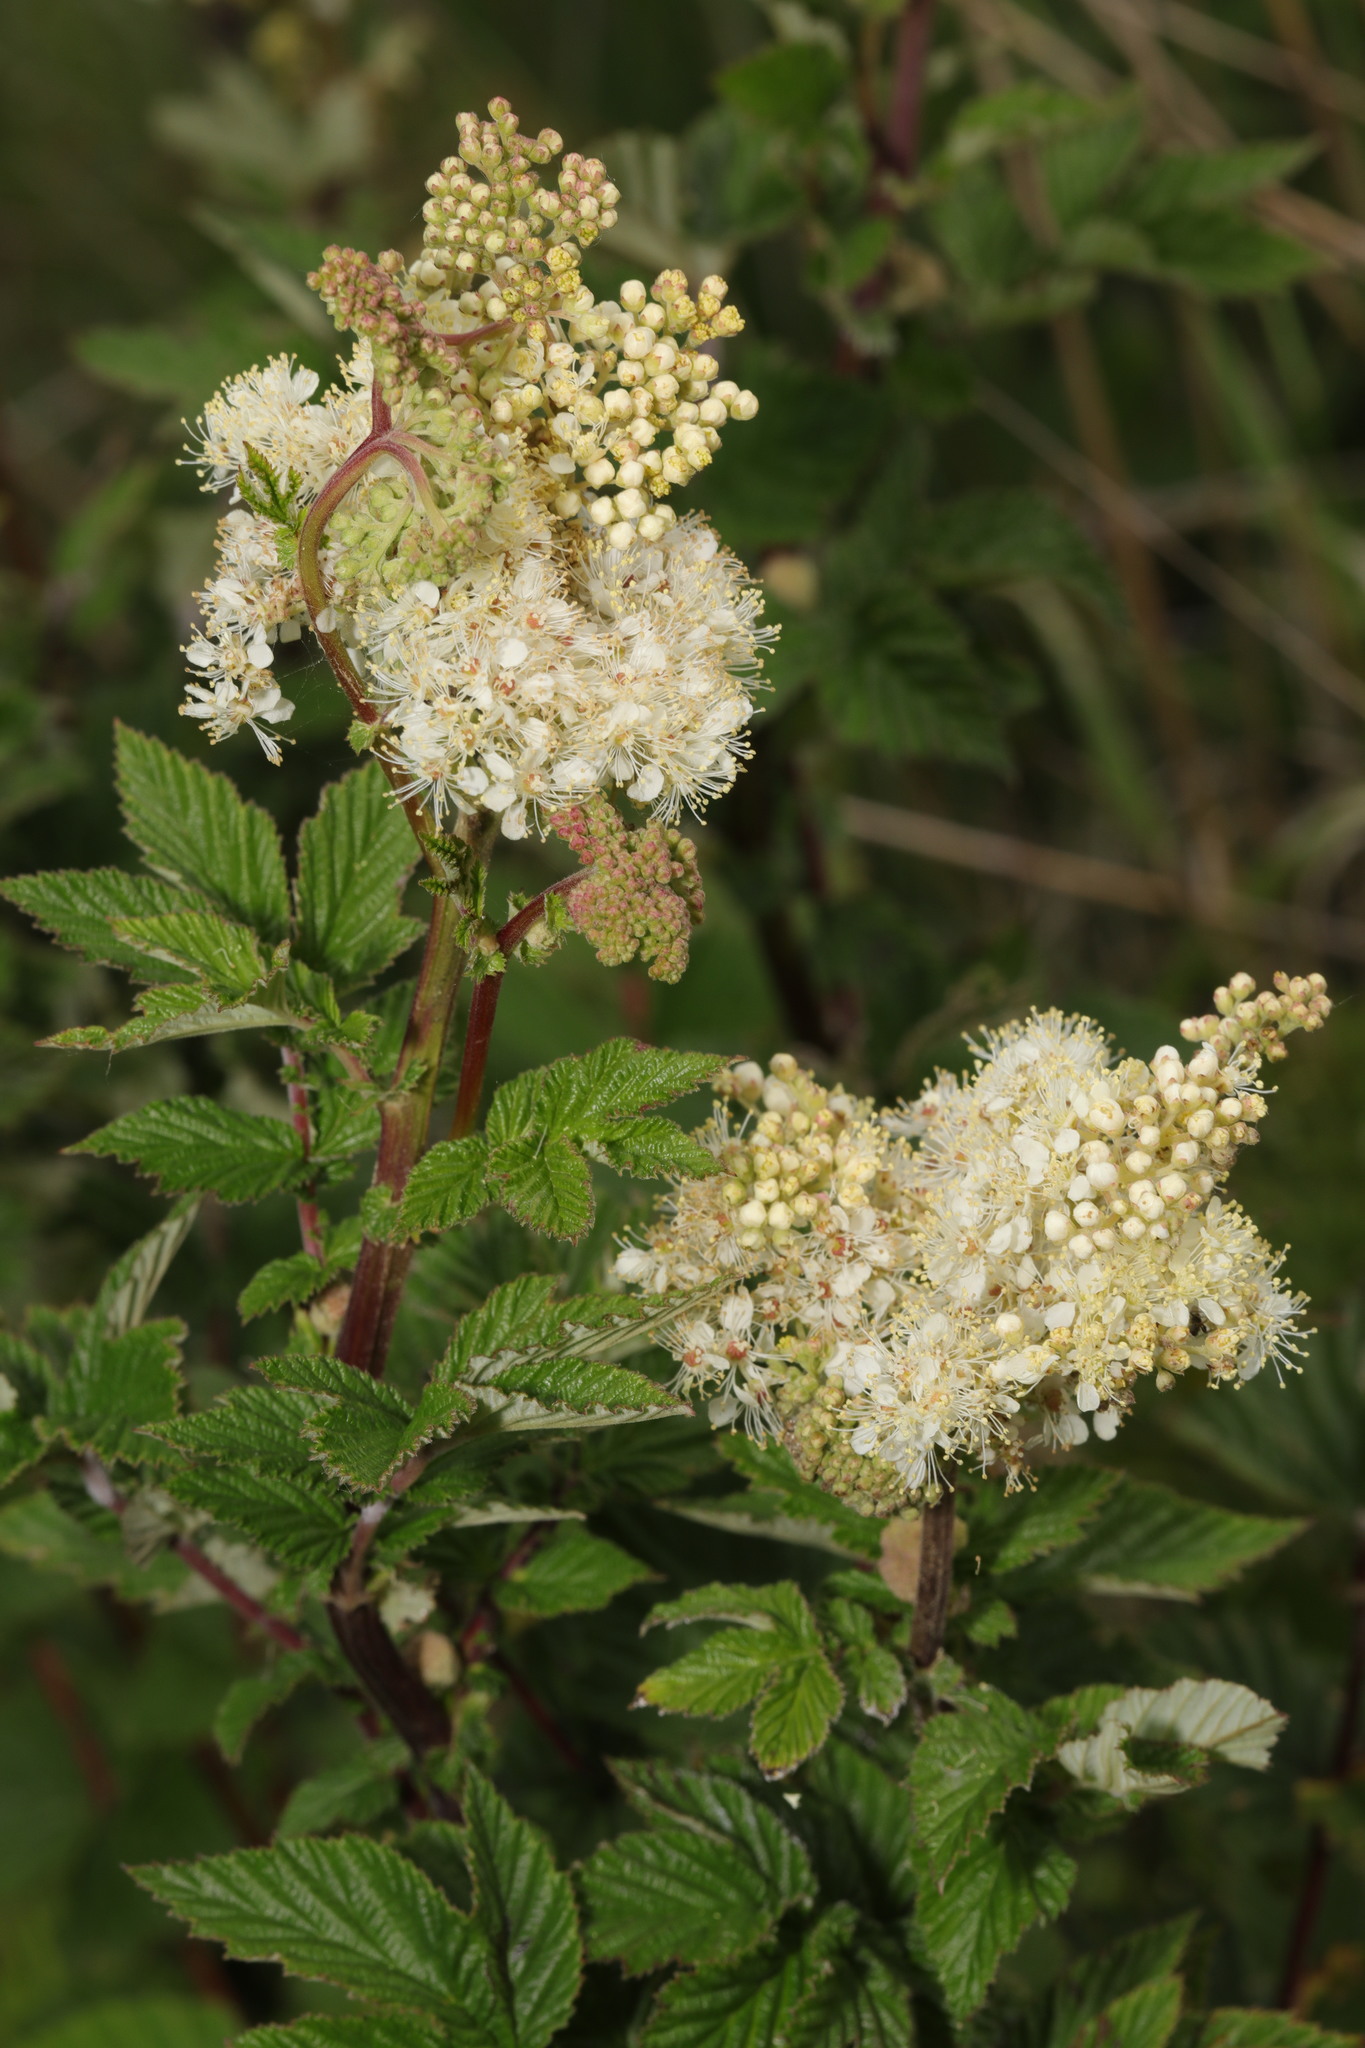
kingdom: Plantae
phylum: Tracheophyta
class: Magnoliopsida
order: Rosales
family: Rosaceae
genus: Filipendula
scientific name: Filipendula ulmaria
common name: Meadowsweet
